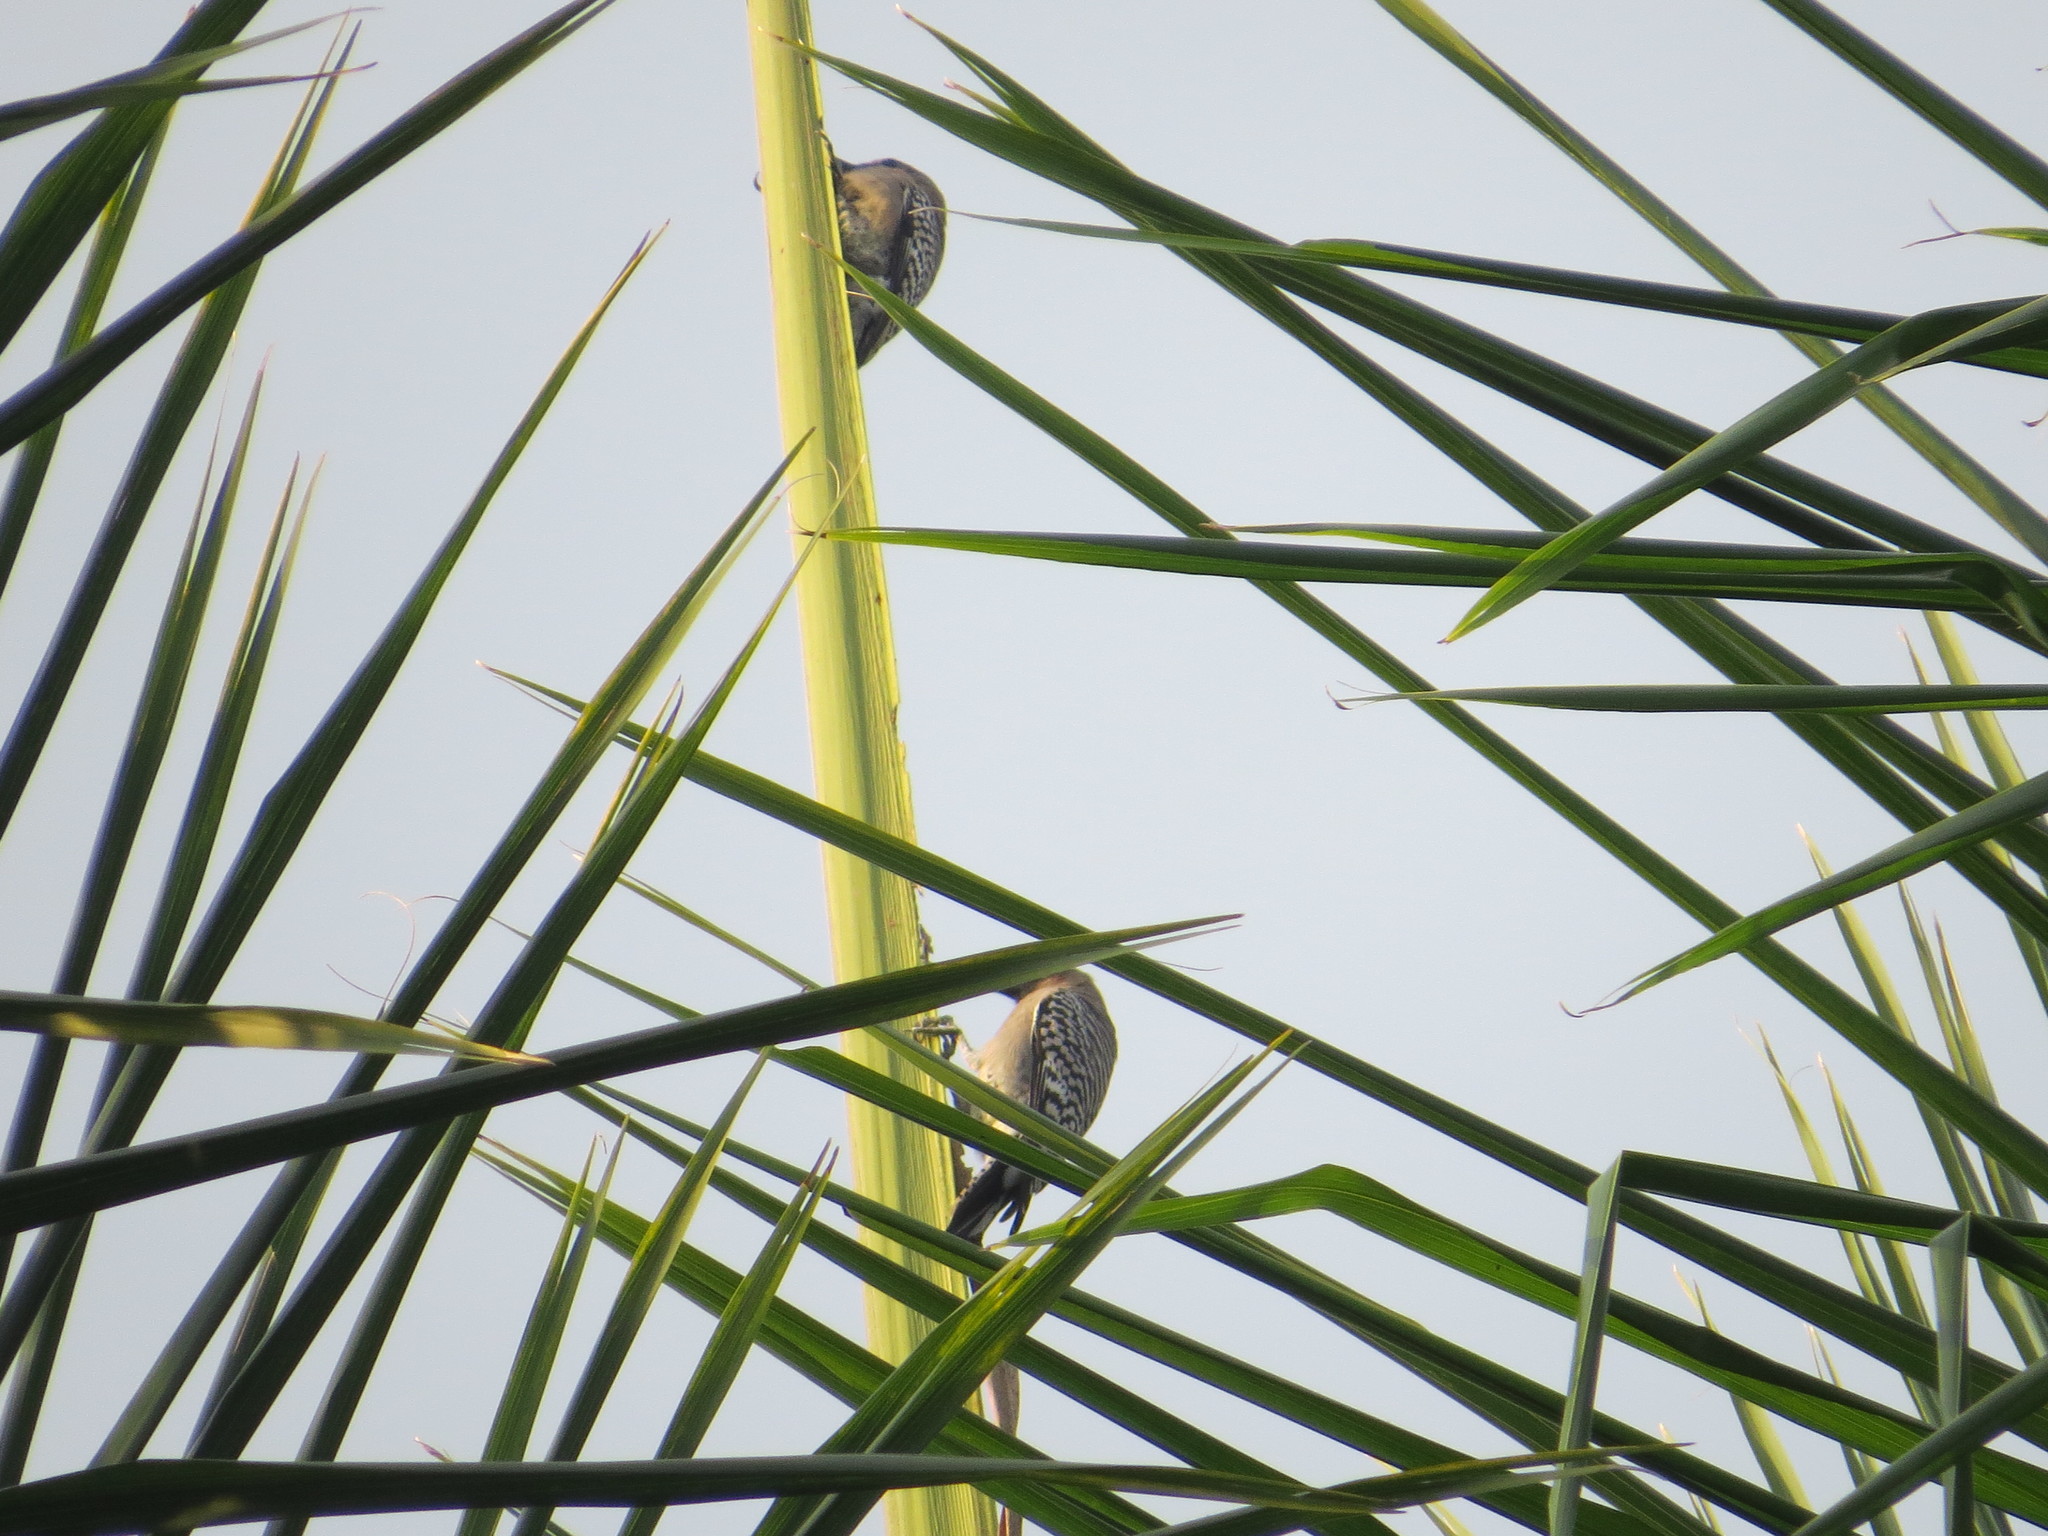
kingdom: Animalia
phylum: Chordata
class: Aves
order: Piciformes
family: Picidae
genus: Melanerpes
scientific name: Melanerpes chrysogenys
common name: Golden-cheeked woodpecker
